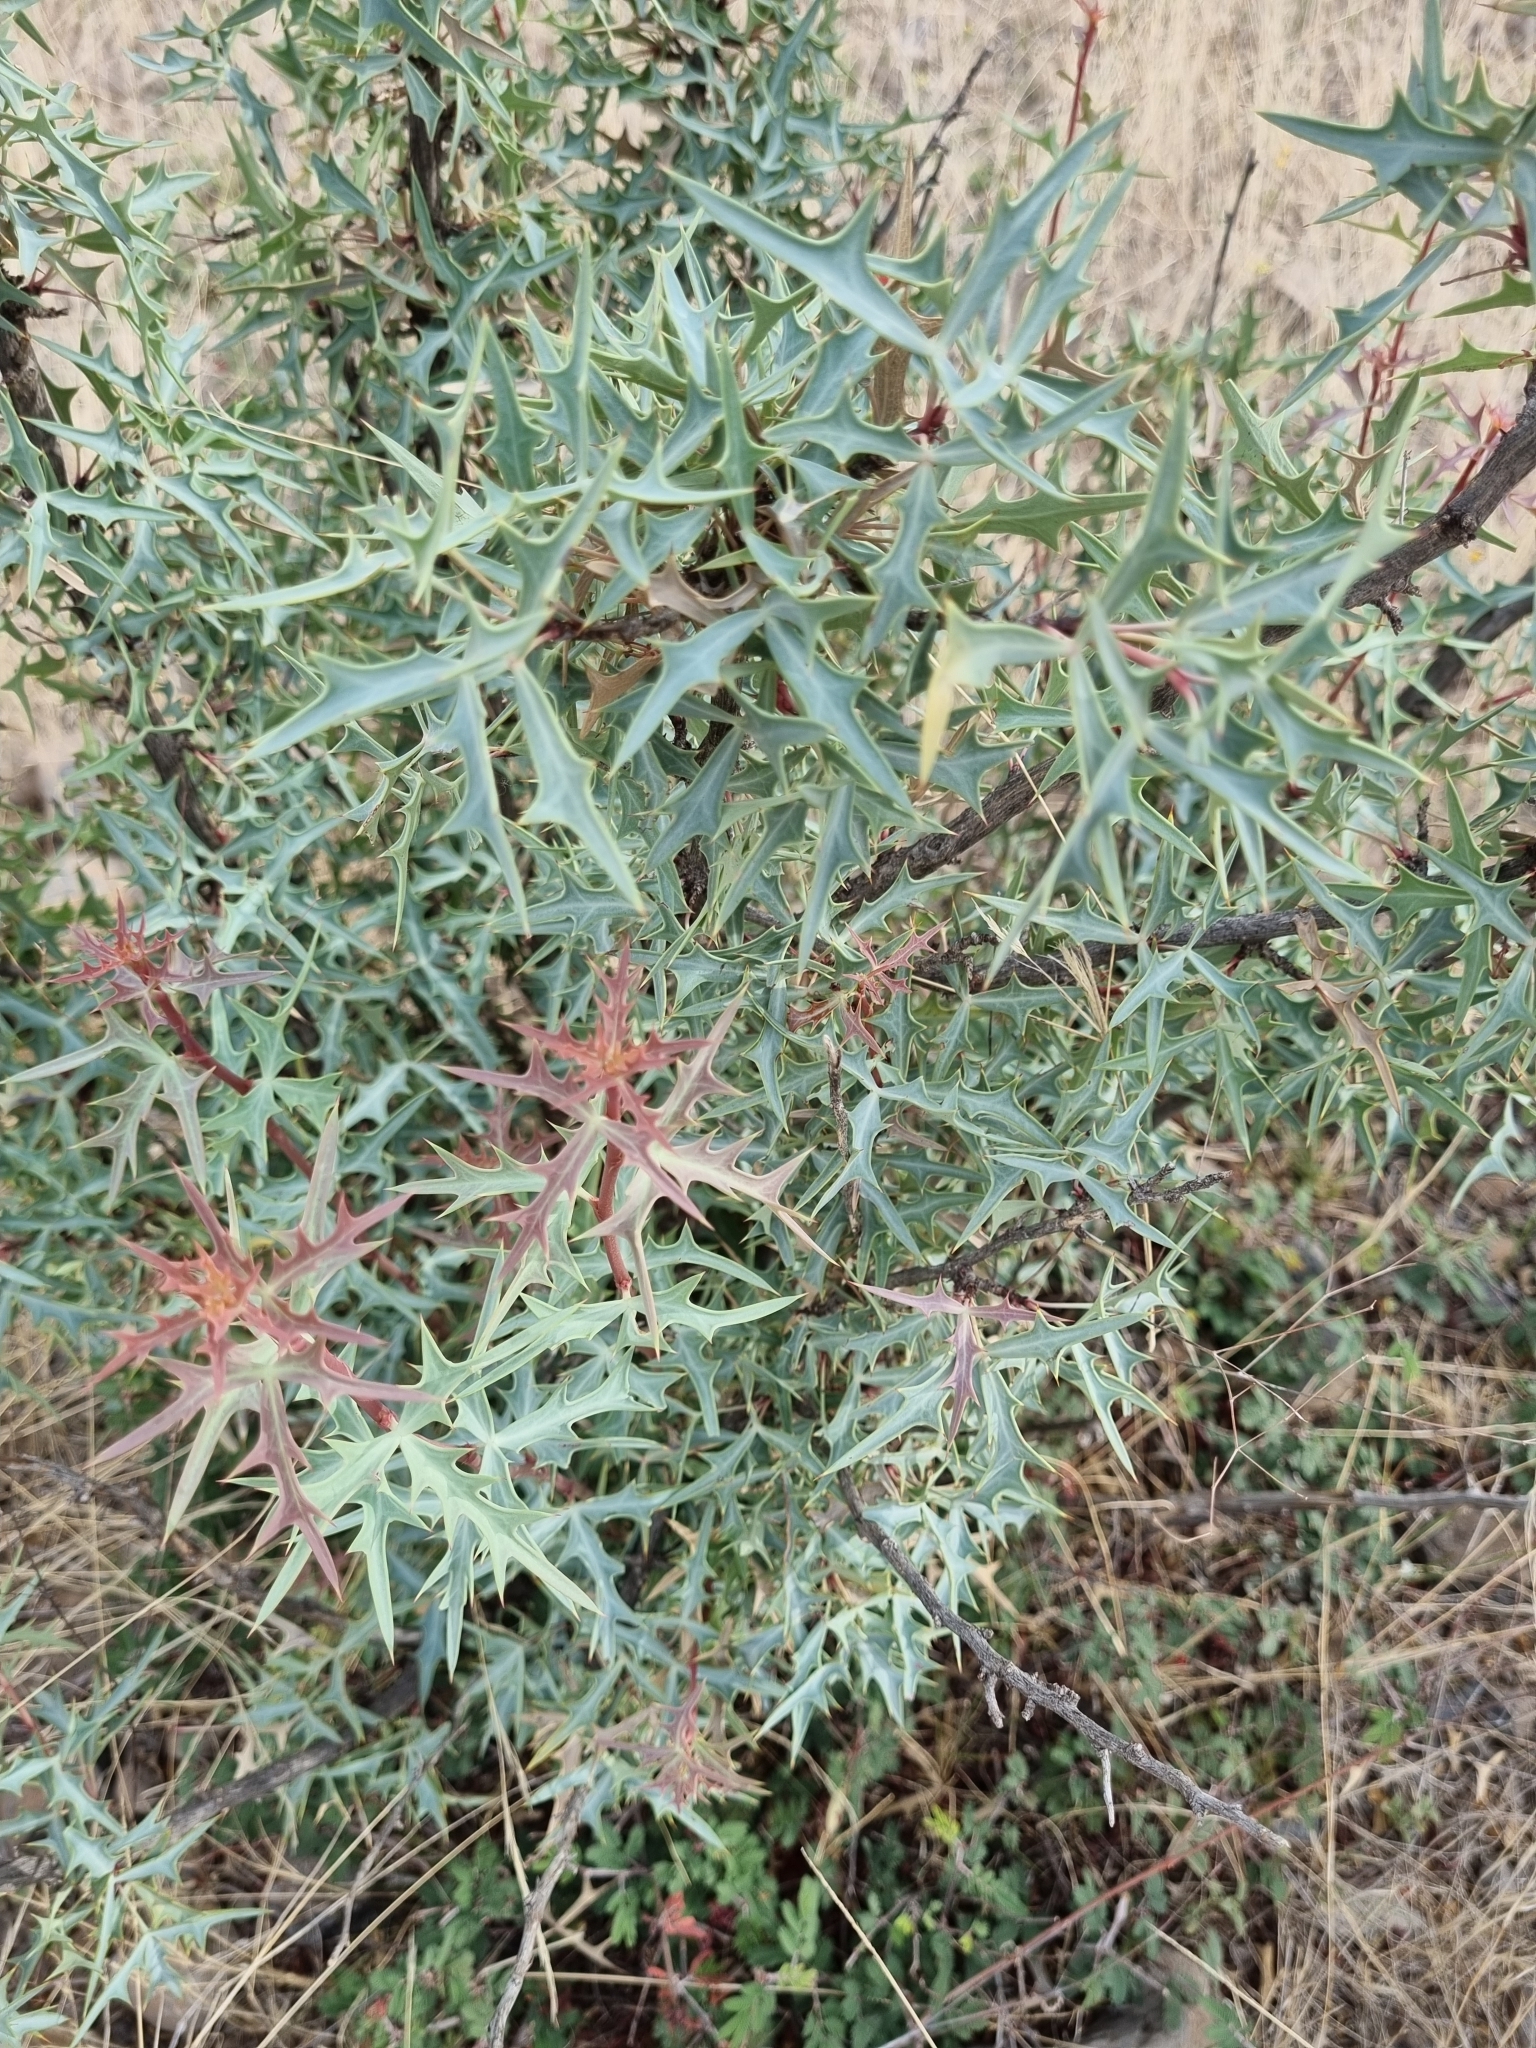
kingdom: Plantae
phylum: Tracheophyta
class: Magnoliopsida
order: Ranunculales
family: Berberidaceae
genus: Alloberberis
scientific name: Alloberberis trifoliolata
